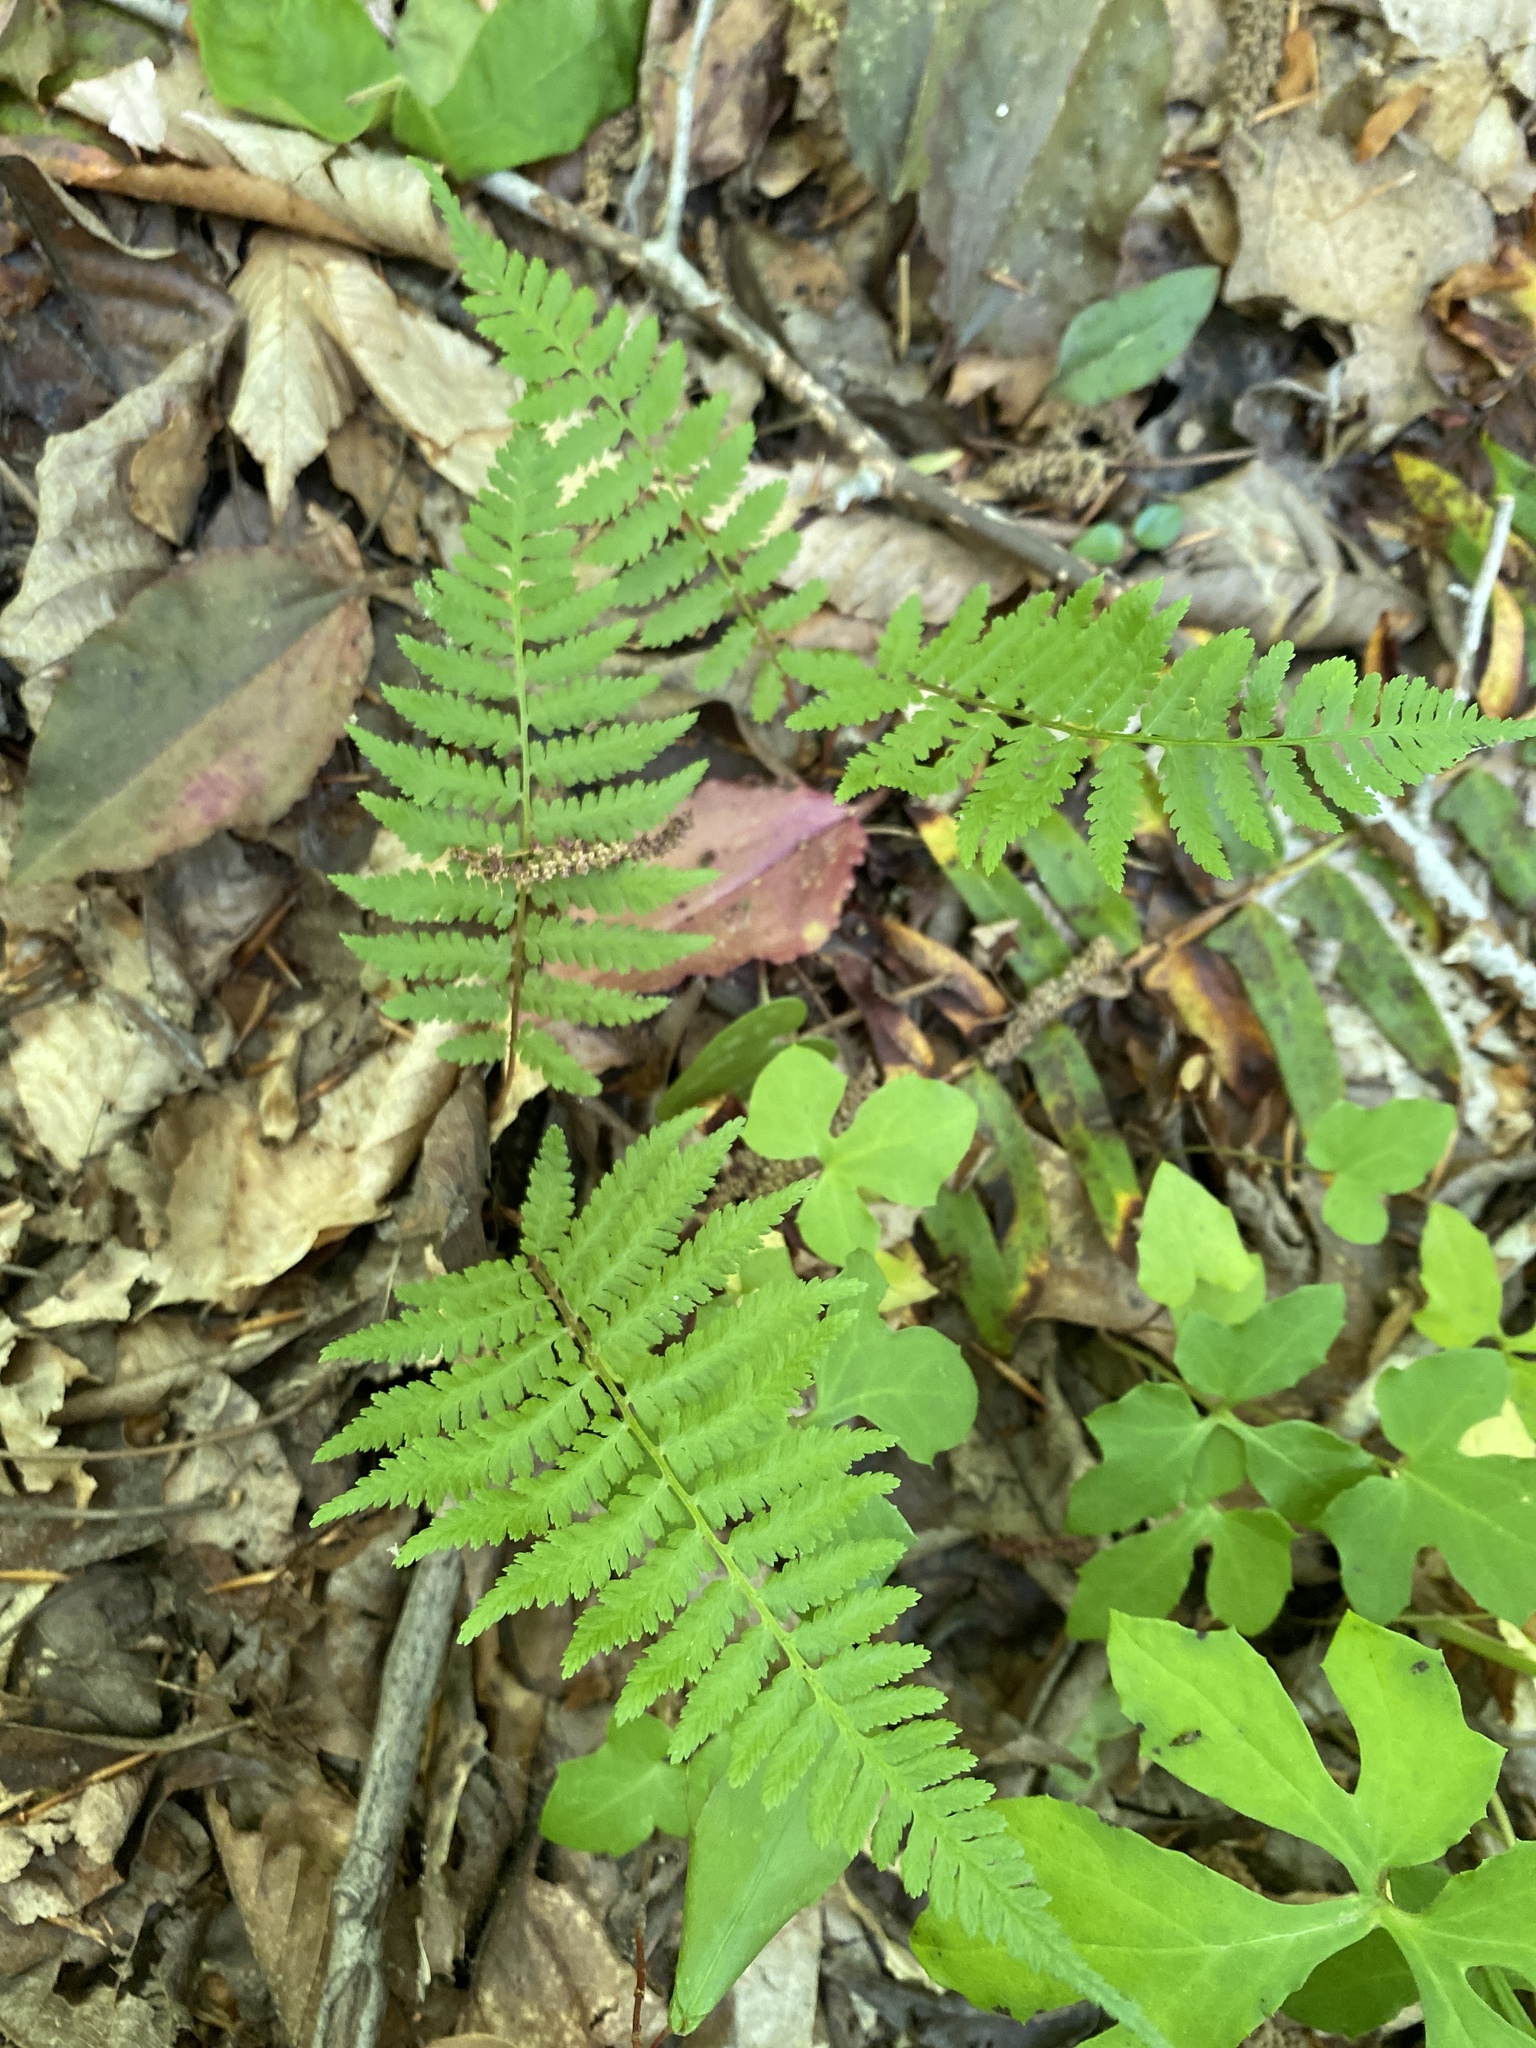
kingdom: Plantae
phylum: Tracheophyta
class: Polypodiopsida
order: Polypodiales
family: Athyriaceae
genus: Athyrium
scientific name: Athyrium asplenioides
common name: Southern lady fern
